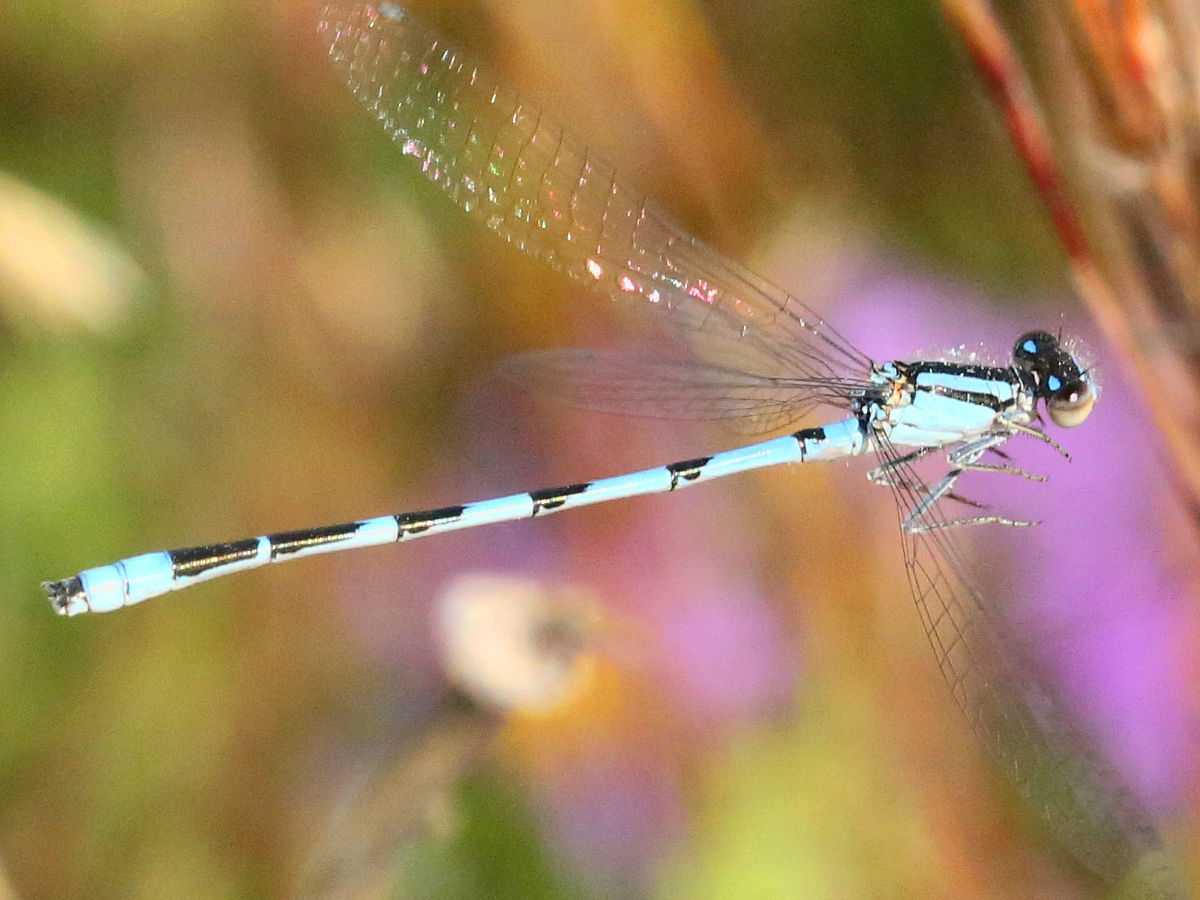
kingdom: Animalia
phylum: Arthropoda
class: Insecta
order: Odonata
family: Coenagrionidae
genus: Enallagma
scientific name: Enallagma civile
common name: Damselfly
